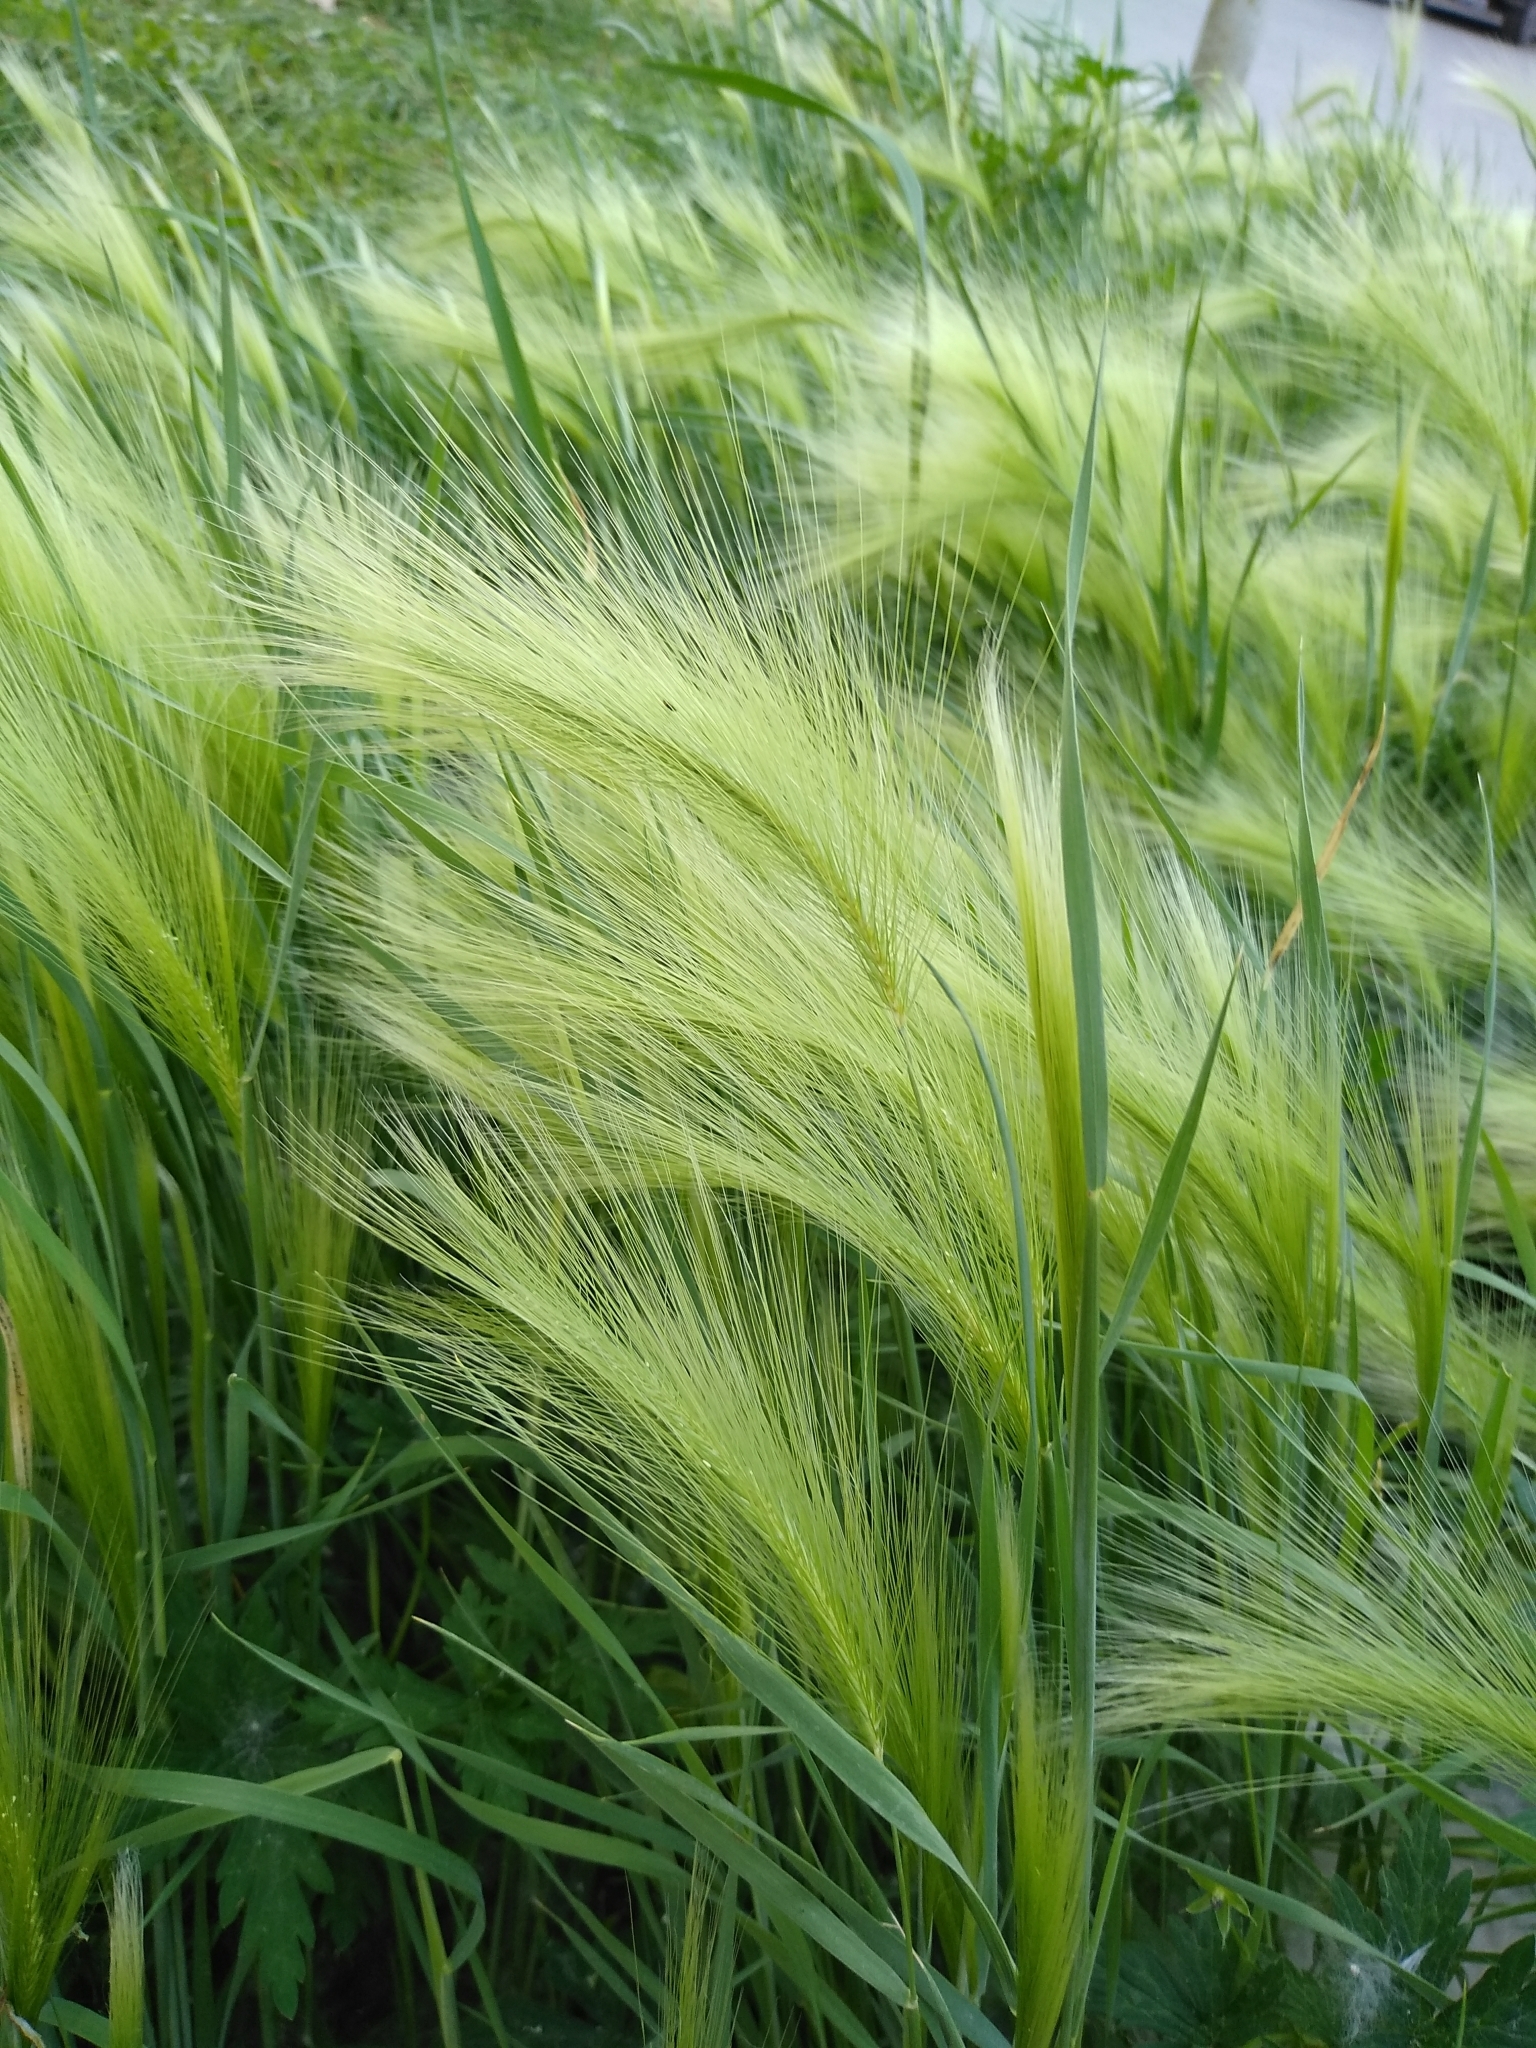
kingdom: Plantae
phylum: Tracheophyta
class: Liliopsida
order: Poales
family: Poaceae
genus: Hordeum
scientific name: Hordeum jubatum
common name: Foxtail barley
